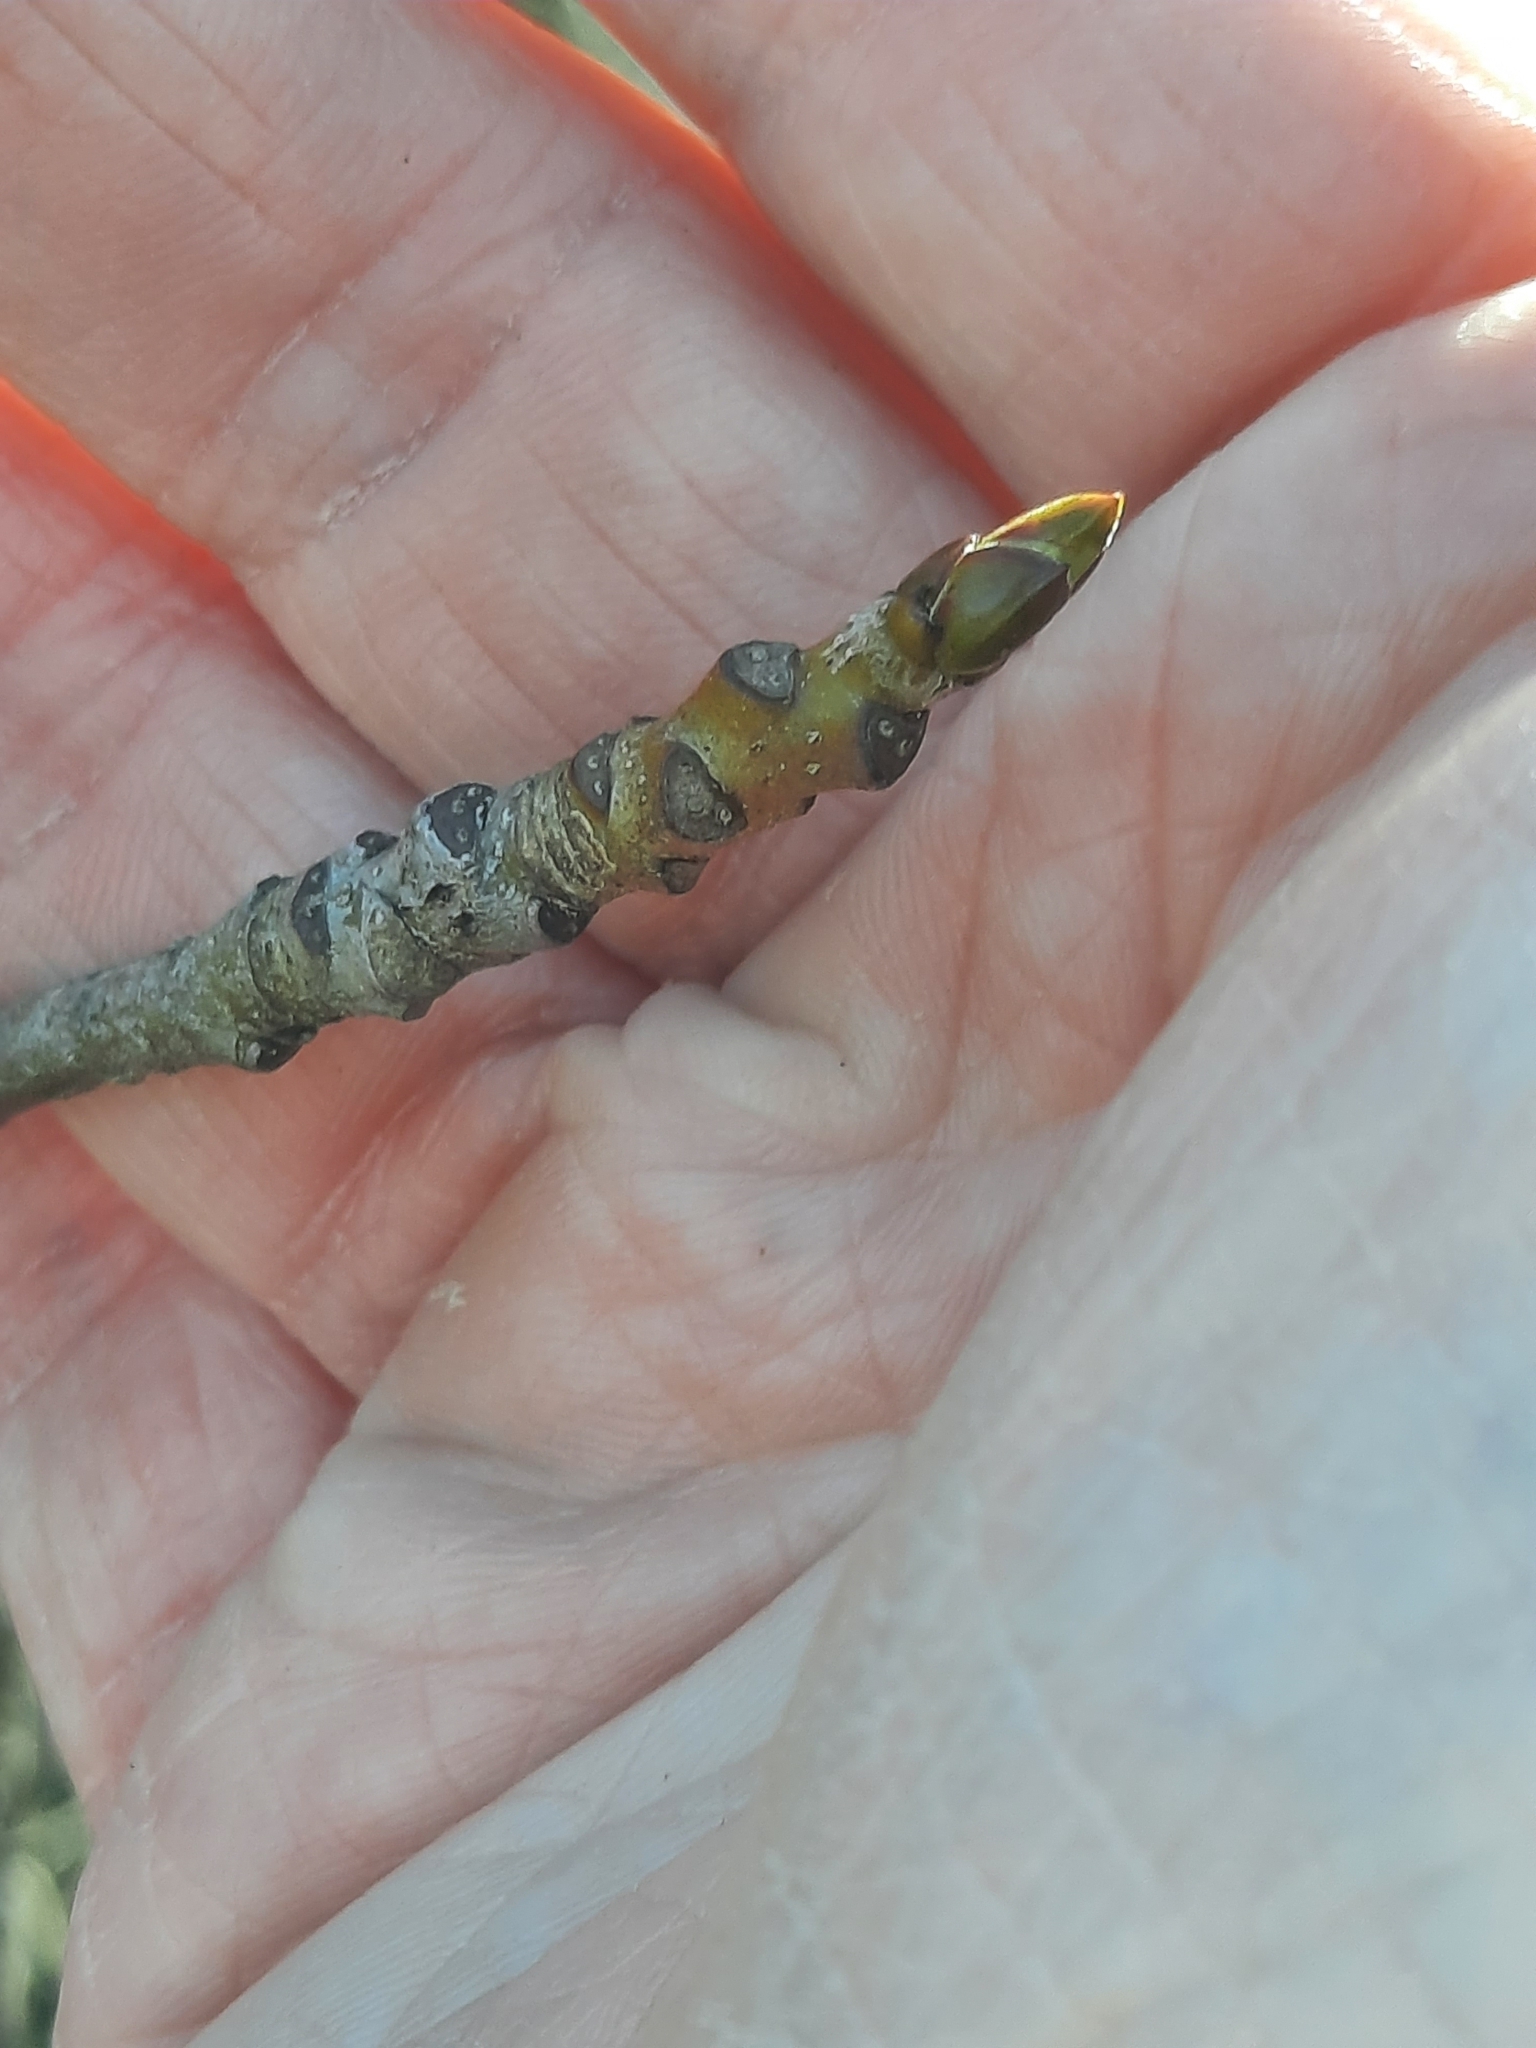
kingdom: Plantae
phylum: Tracheophyta
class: Magnoliopsida
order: Saxifragales
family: Altingiaceae
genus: Liquidambar
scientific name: Liquidambar styraciflua
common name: Sweet gum
